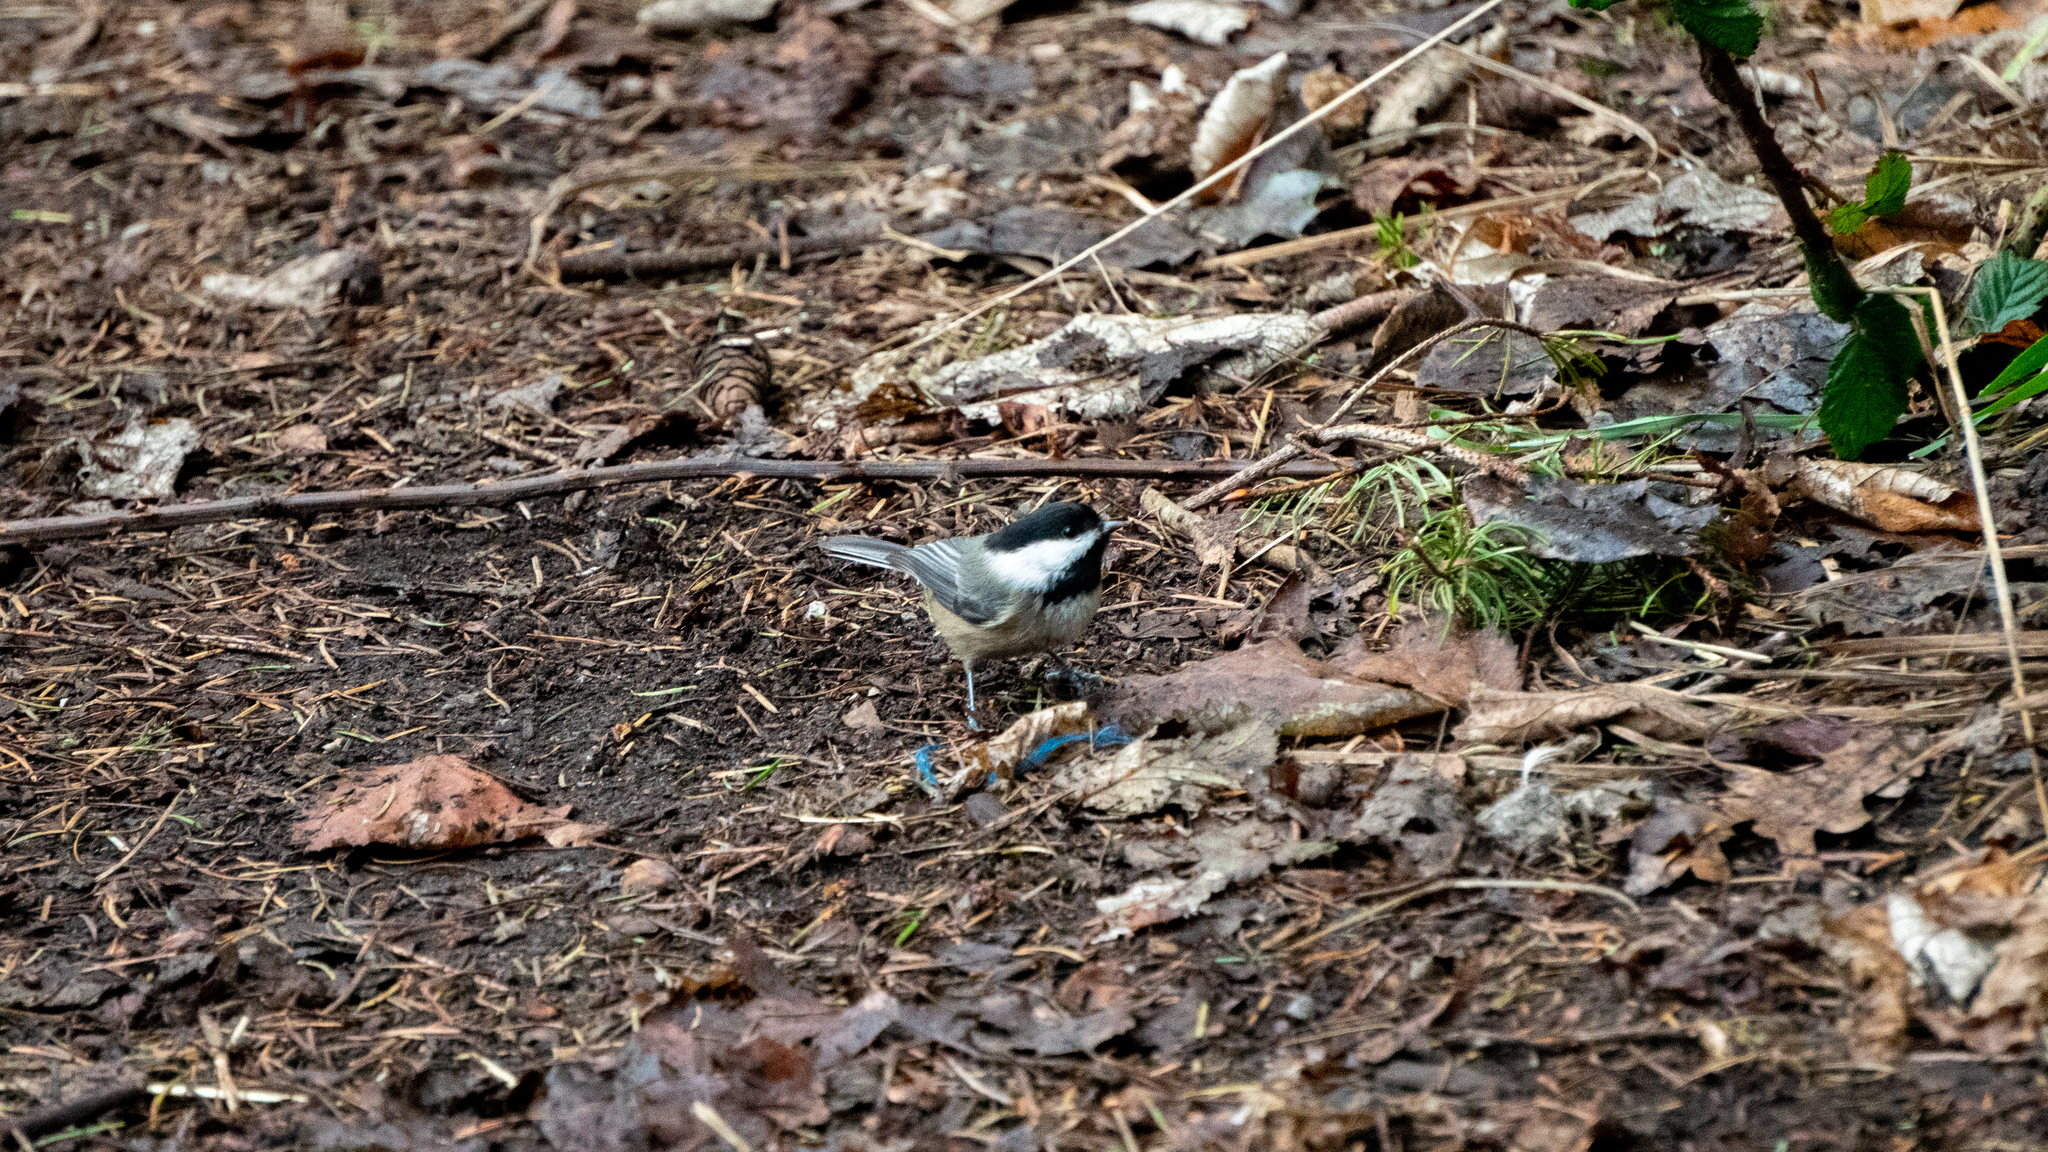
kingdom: Animalia
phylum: Chordata
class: Aves
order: Passeriformes
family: Paridae
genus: Poecile
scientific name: Poecile atricapillus
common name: Black-capped chickadee
